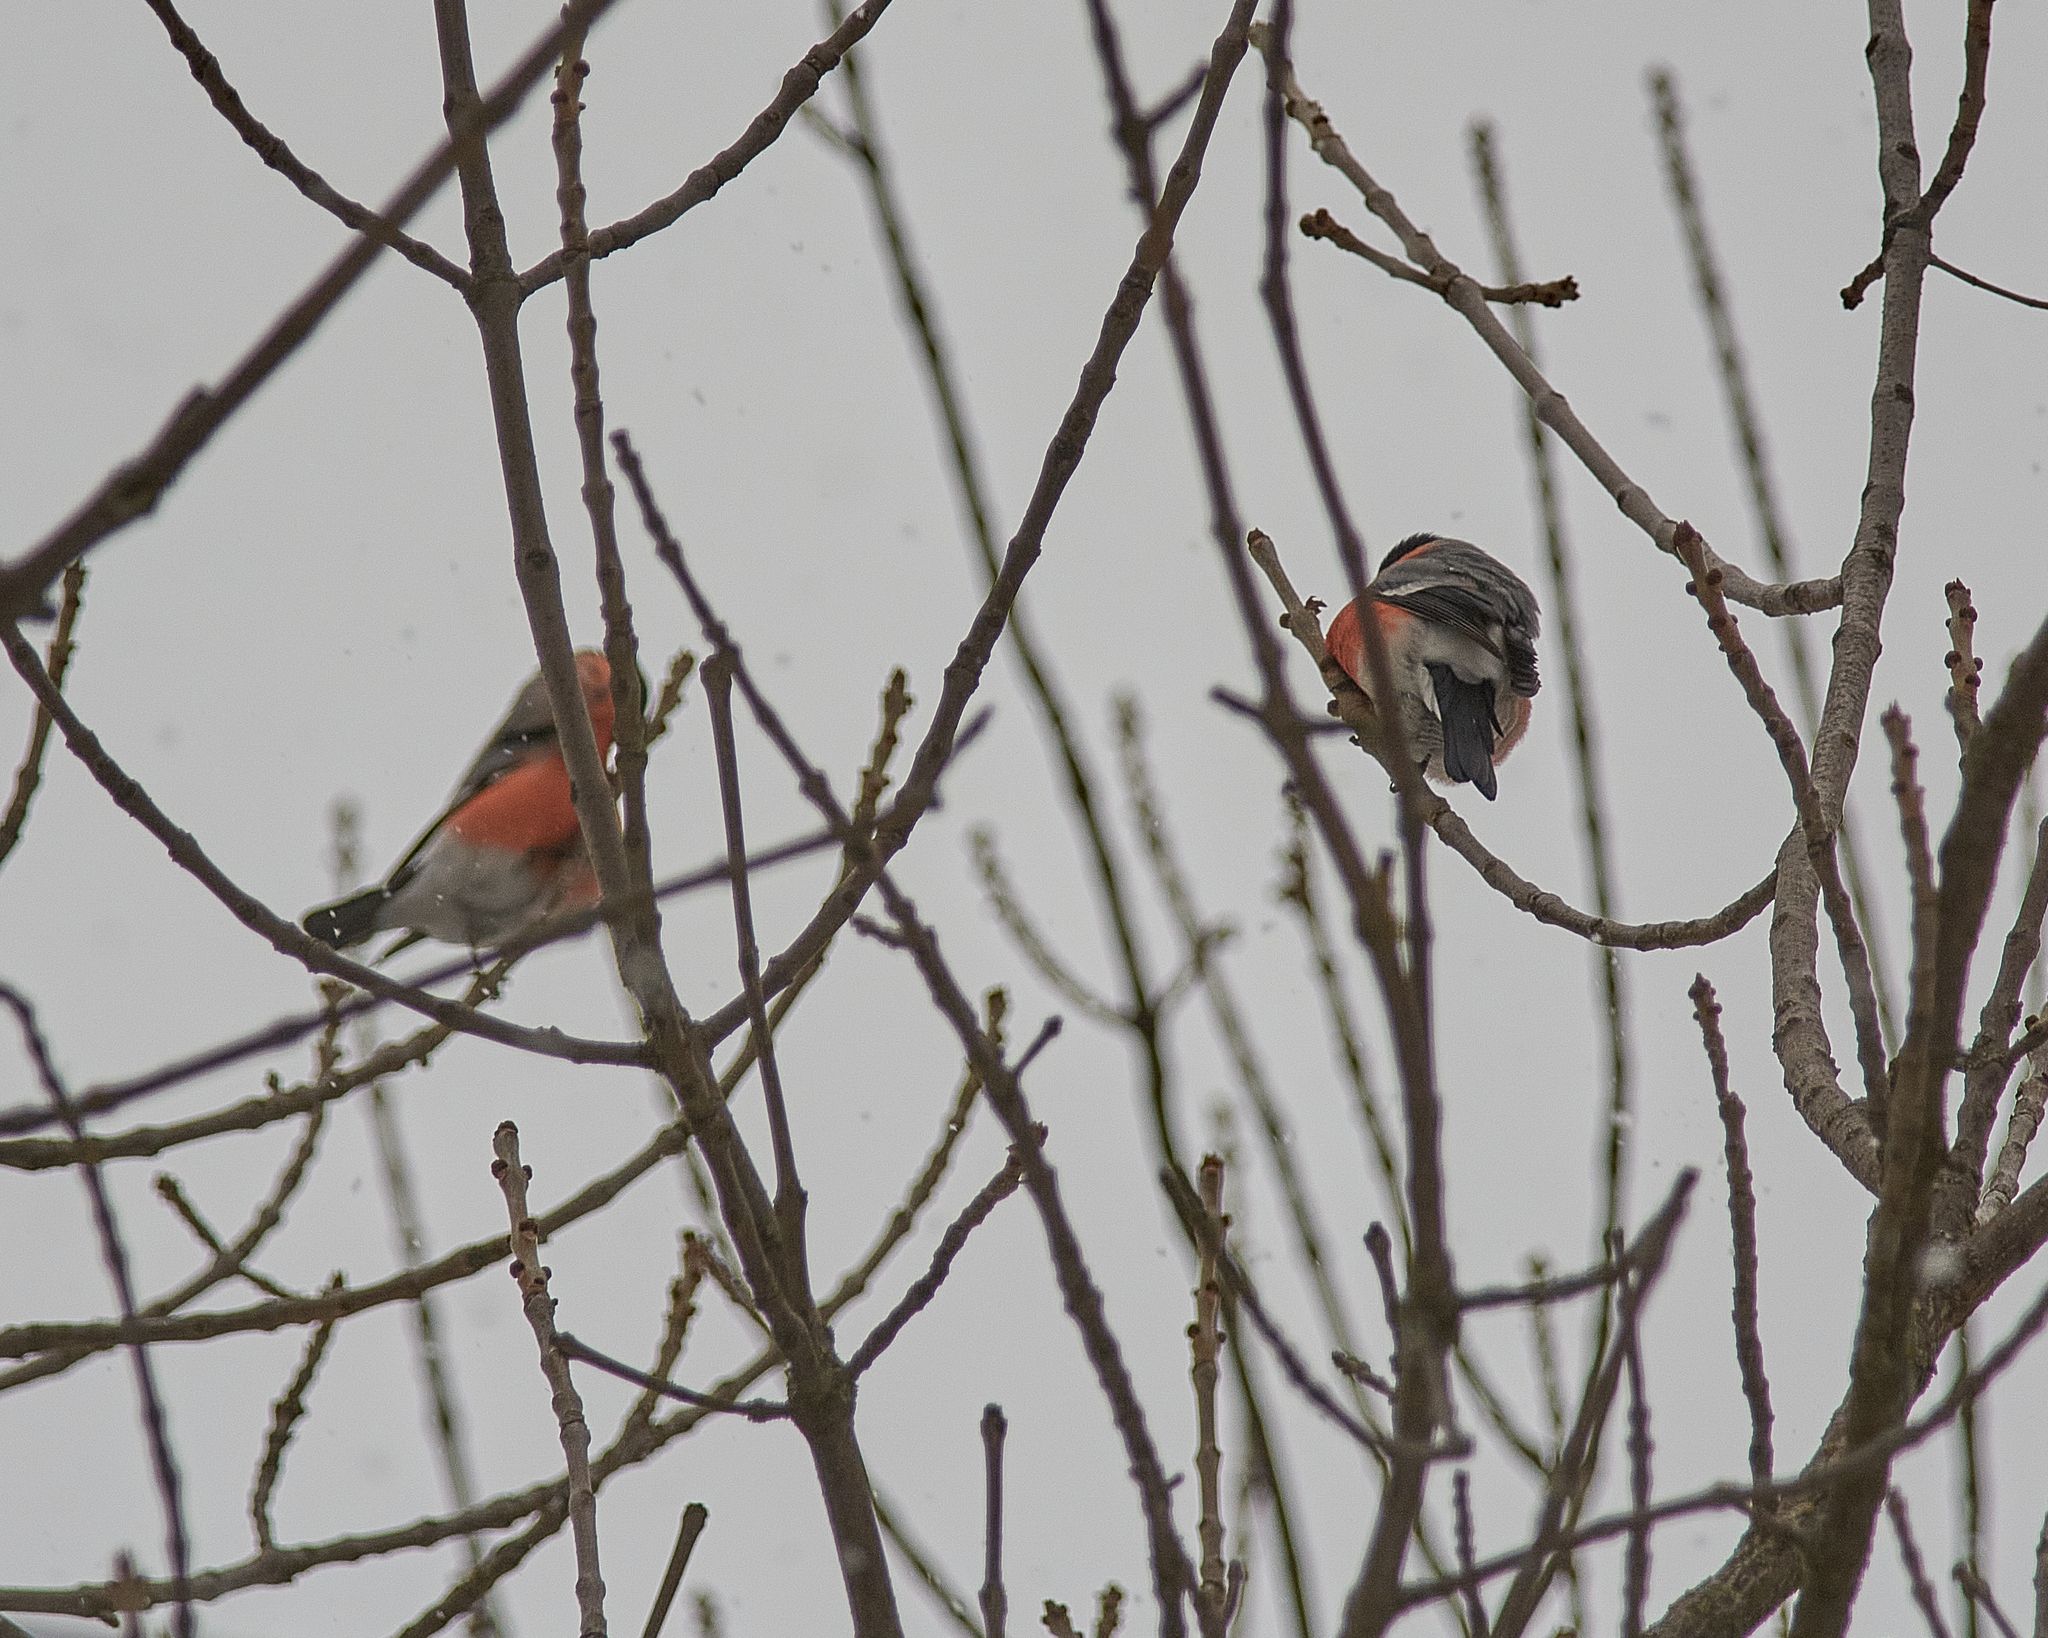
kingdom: Animalia
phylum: Chordata
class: Aves
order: Passeriformes
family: Fringillidae
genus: Pyrrhula
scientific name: Pyrrhula pyrrhula
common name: Eurasian bullfinch
